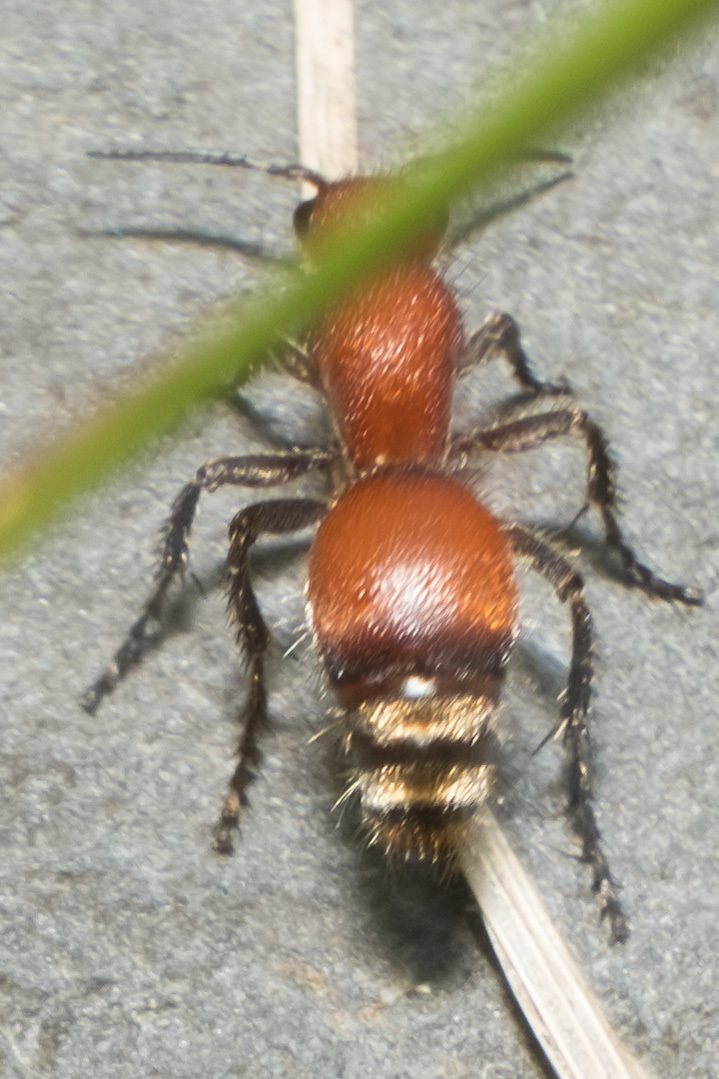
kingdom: Animalia
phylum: Arthropoda
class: Insecta
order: Hymenoptera
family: Mutillidae
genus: Dasymutilla
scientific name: Dasymutilla
